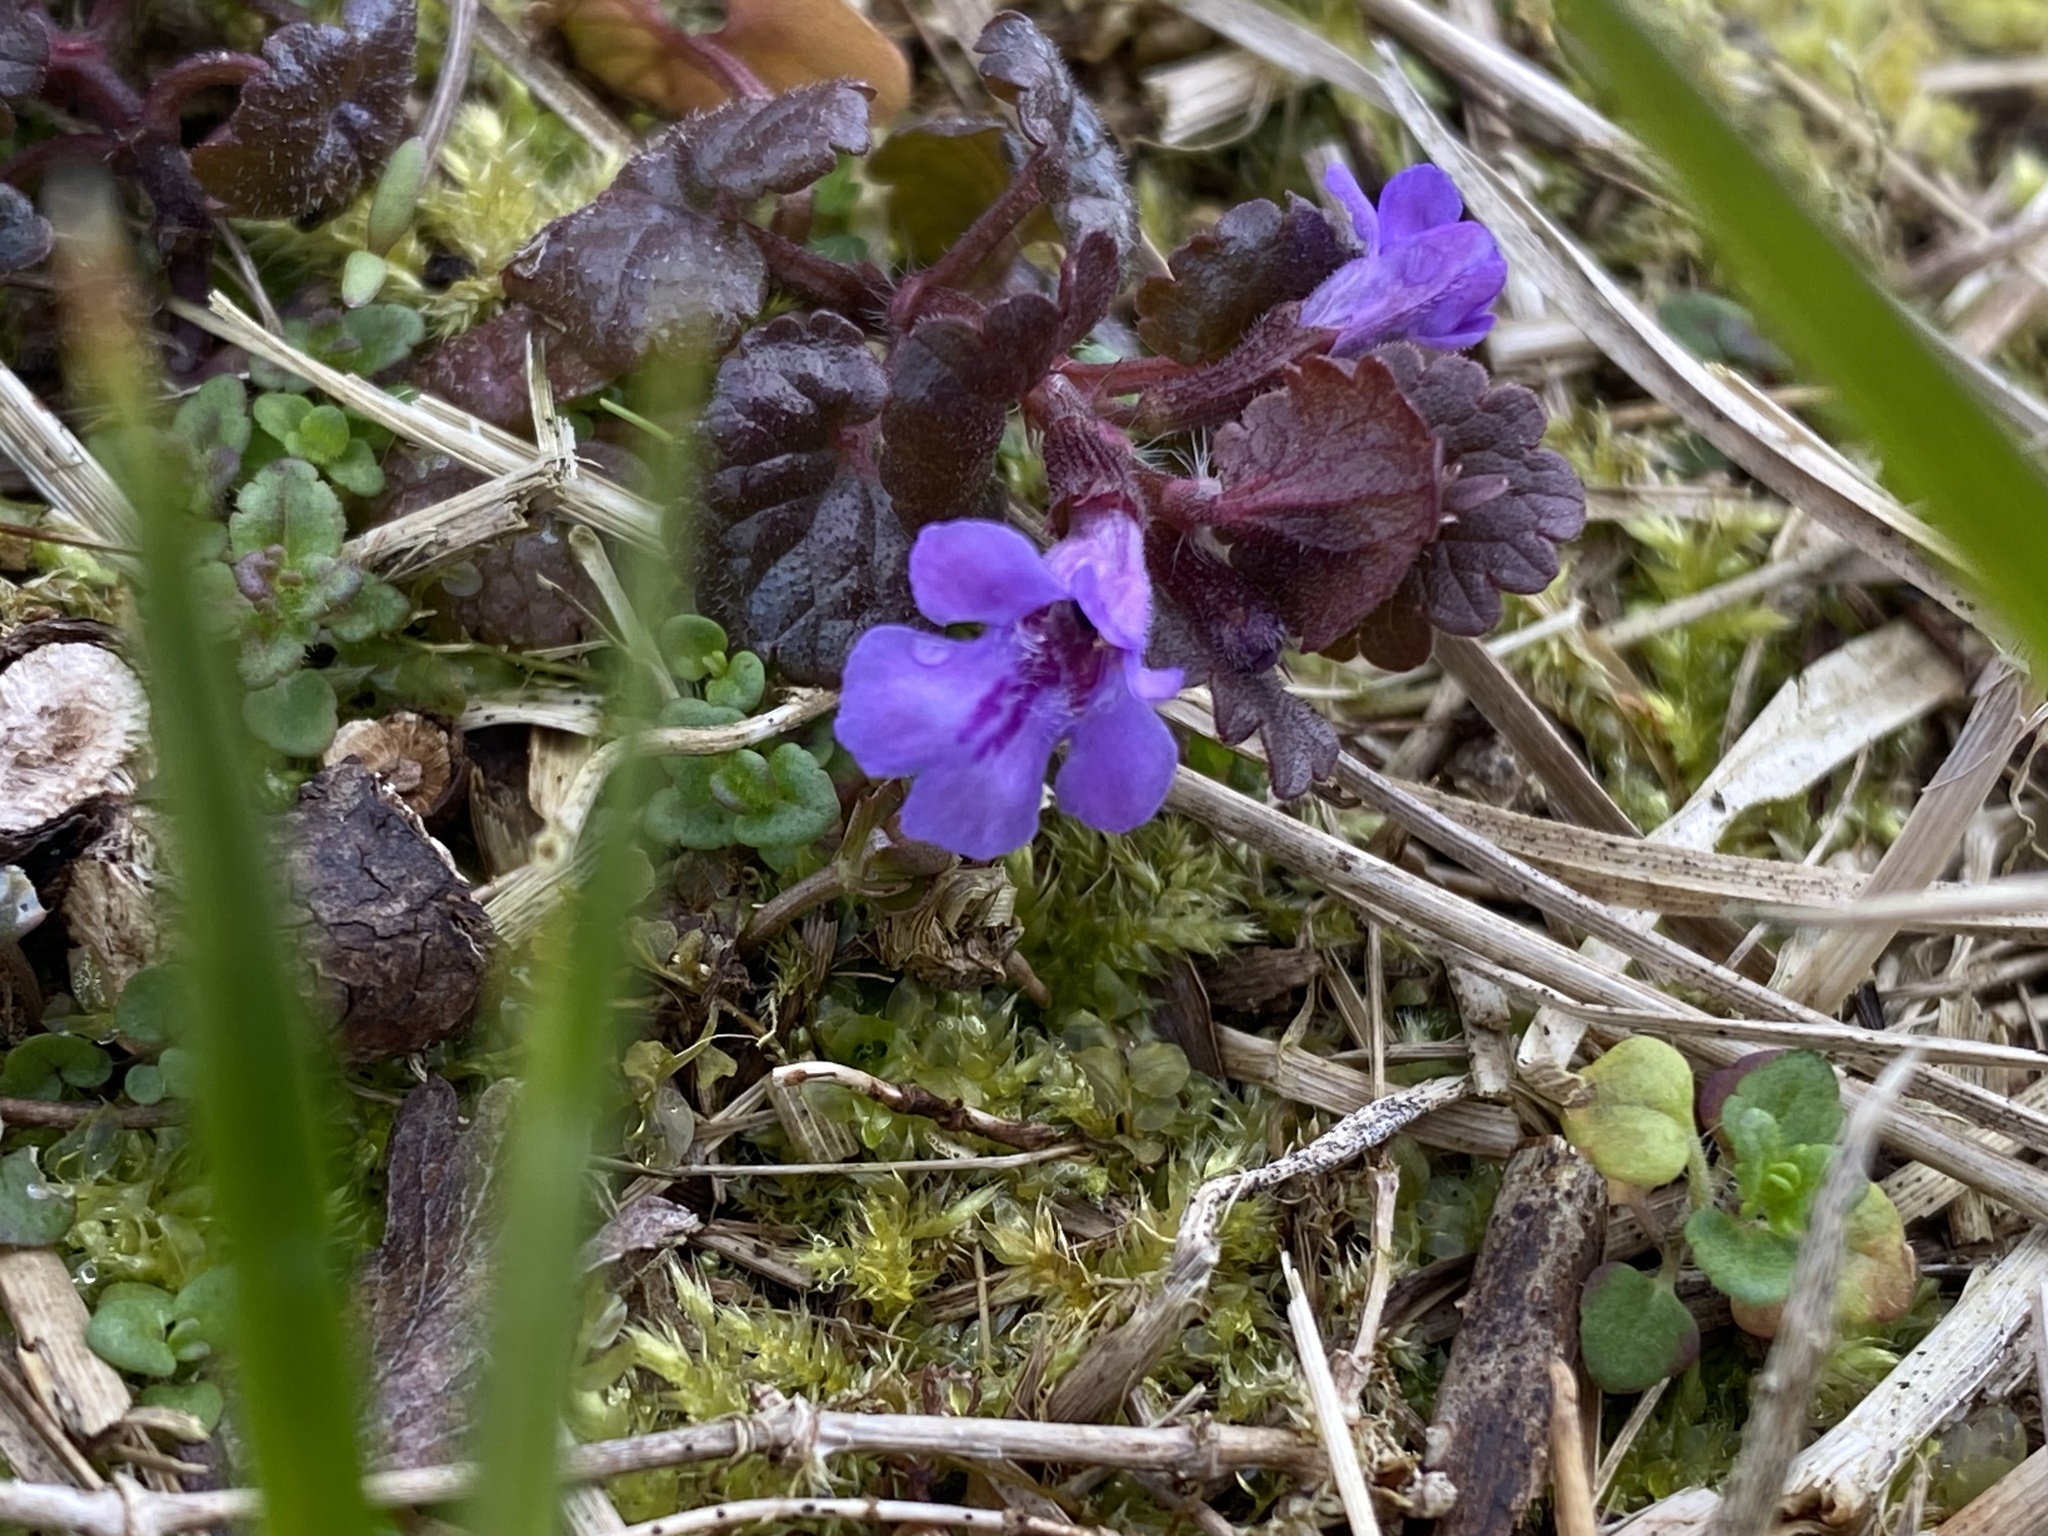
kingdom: Plantae
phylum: Tracheophyta
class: Magnoliopsida
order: Lamiales
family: Lamiaceae
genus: Glechoma
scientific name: Glechoma hederacea
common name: Ground ivy
